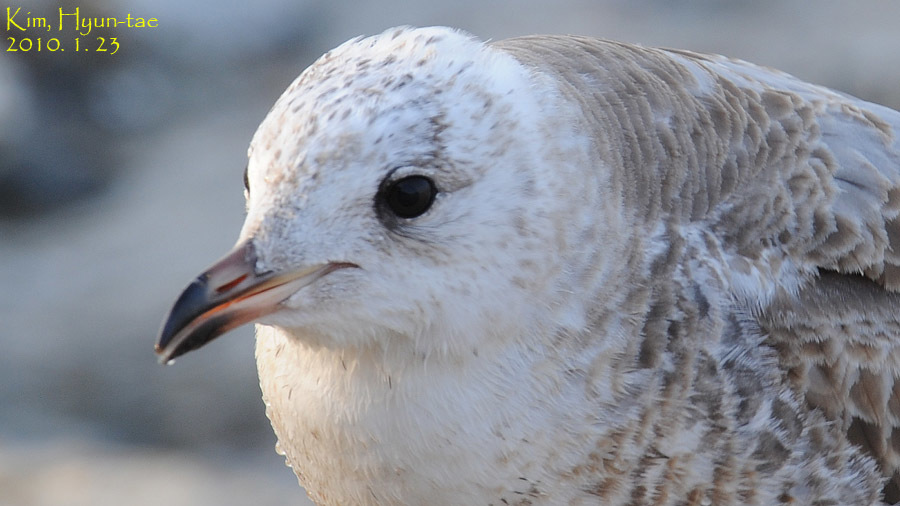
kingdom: Animalia
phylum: Chordata
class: Aves
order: Charadriiformes
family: Laridae
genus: Larus
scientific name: Larus canus
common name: Mew gull
